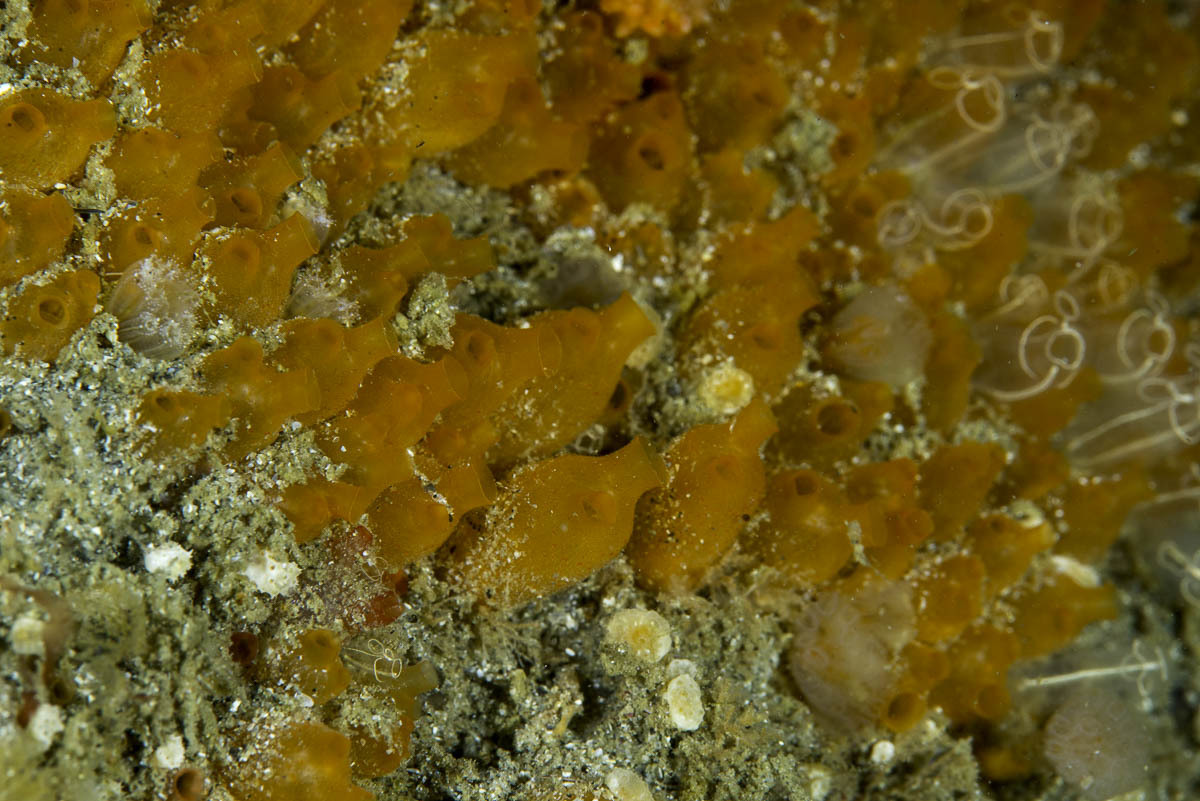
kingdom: Animalia
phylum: Chordata
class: Ascidiacea
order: Stolidobranchia
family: Styelidae
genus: Stolonica
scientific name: Stolonica socialis
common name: Orange sea grapes
